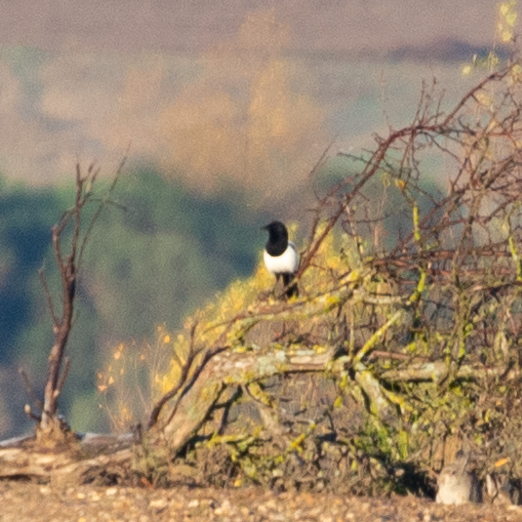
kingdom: Animalia
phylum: Chordata
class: Aves
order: Passeriformes
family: Corvidae
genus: Pica
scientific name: Pica pica
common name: Eurasian magpie
